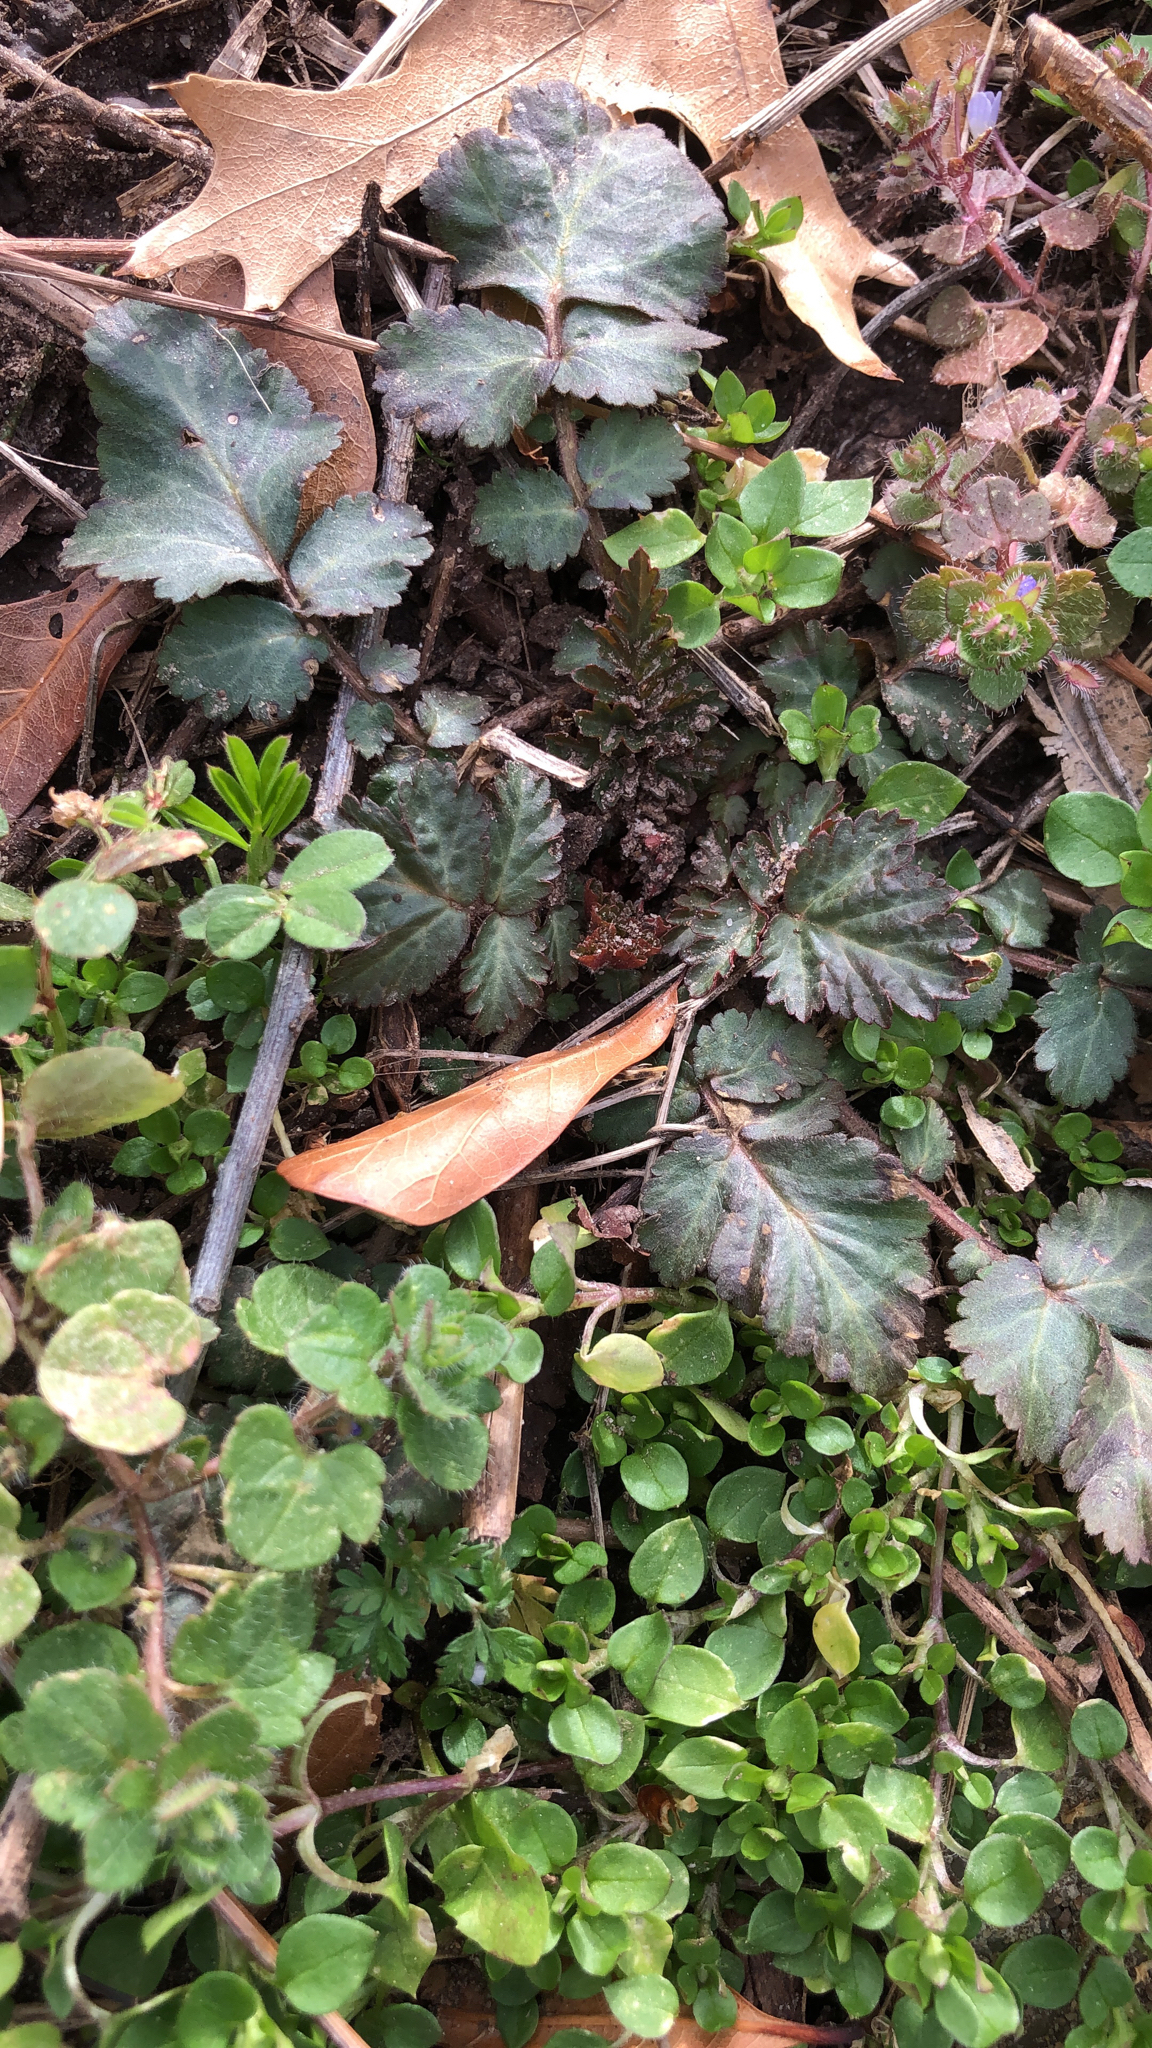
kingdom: Plantae
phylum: Tracheophyta
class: Magnoliopsida
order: Rosales
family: Rosaceae
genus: Geum
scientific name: Geum canadense
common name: White avens
